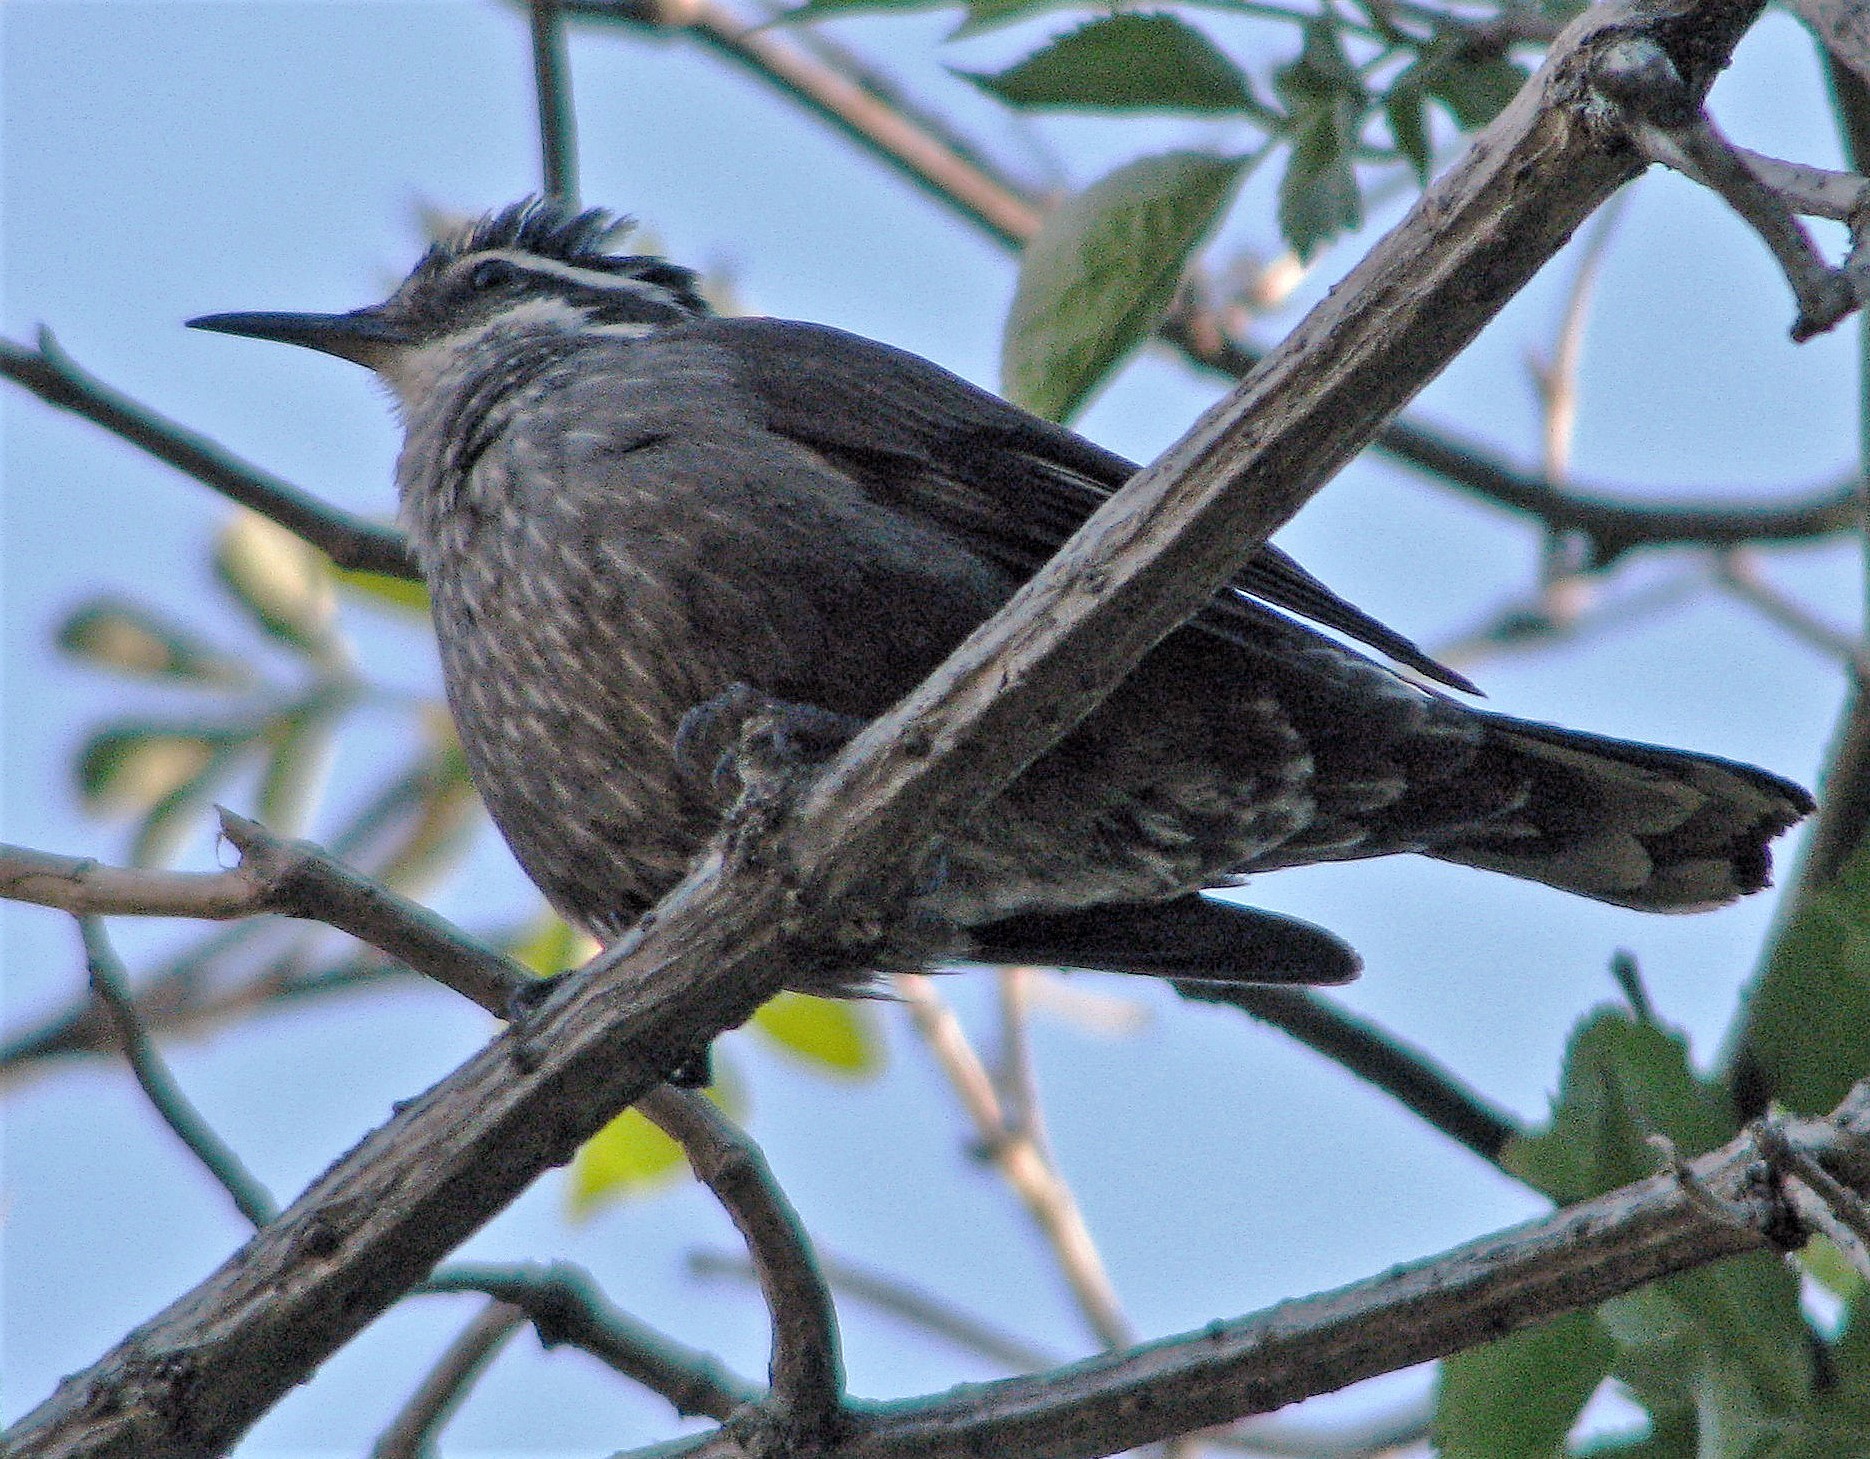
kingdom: Animalia
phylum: Chordata
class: Aves
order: Passeriformes
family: Furnariidae
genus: Cinclodes
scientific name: Cinclodes patagonicus
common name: Dark-bellied cinclodes
